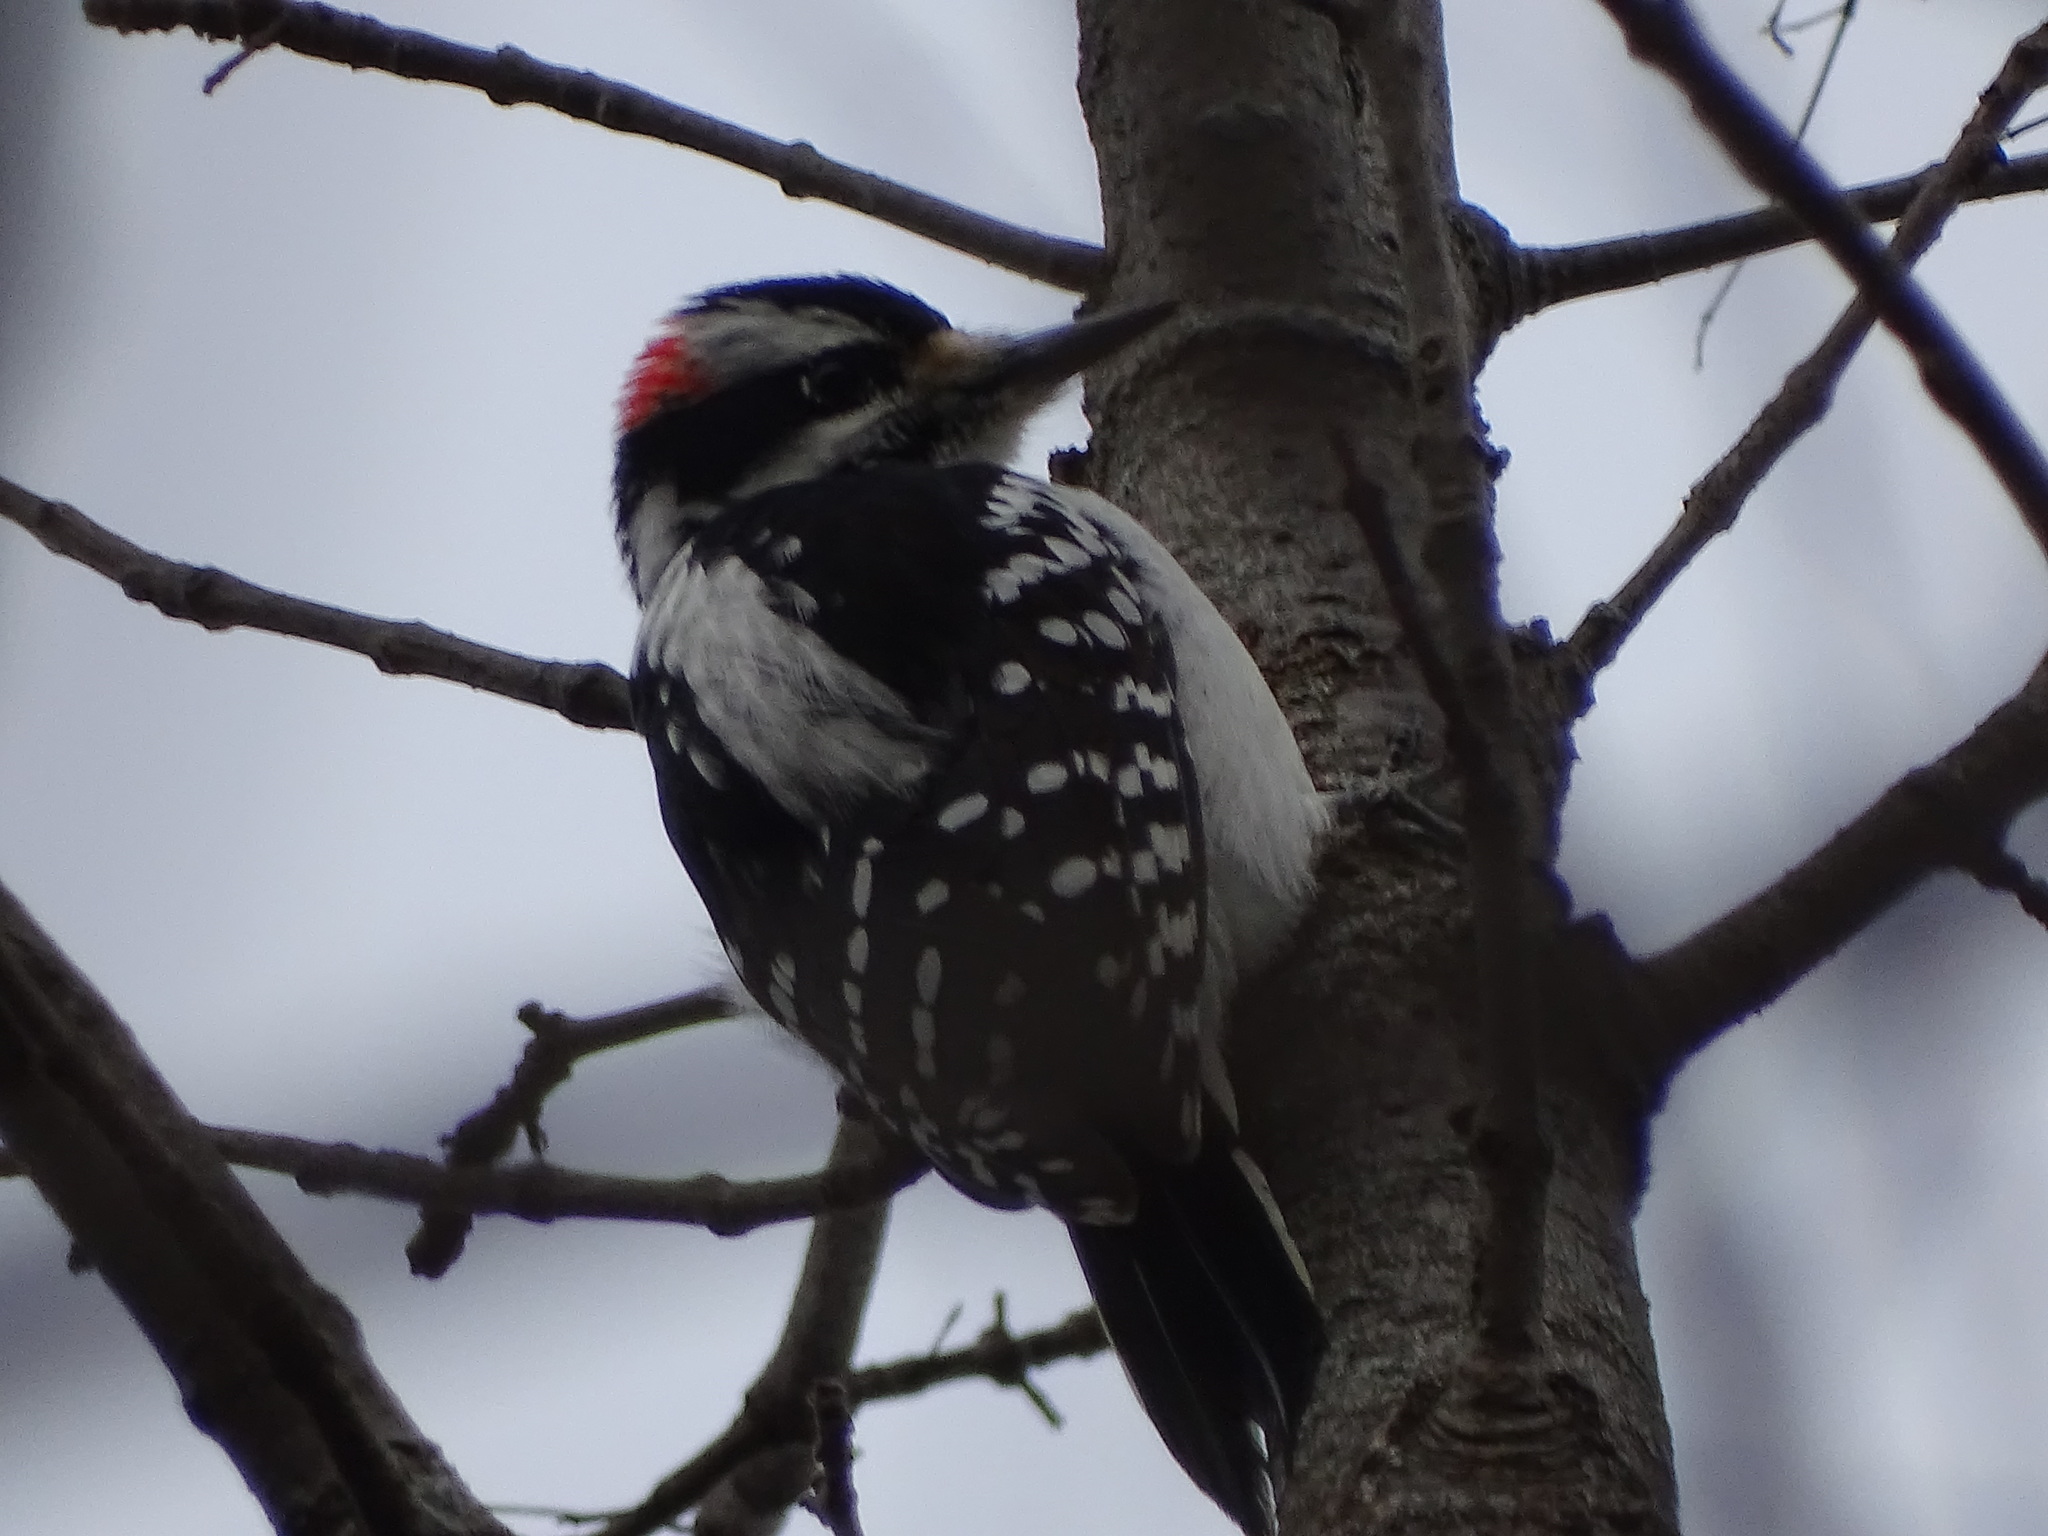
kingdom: Animalia
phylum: Chordata
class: Aves
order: Piciformes
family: Picidae
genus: Leuconotopicus
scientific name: Leuconotopicus villosus
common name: Hairy woodpecker
